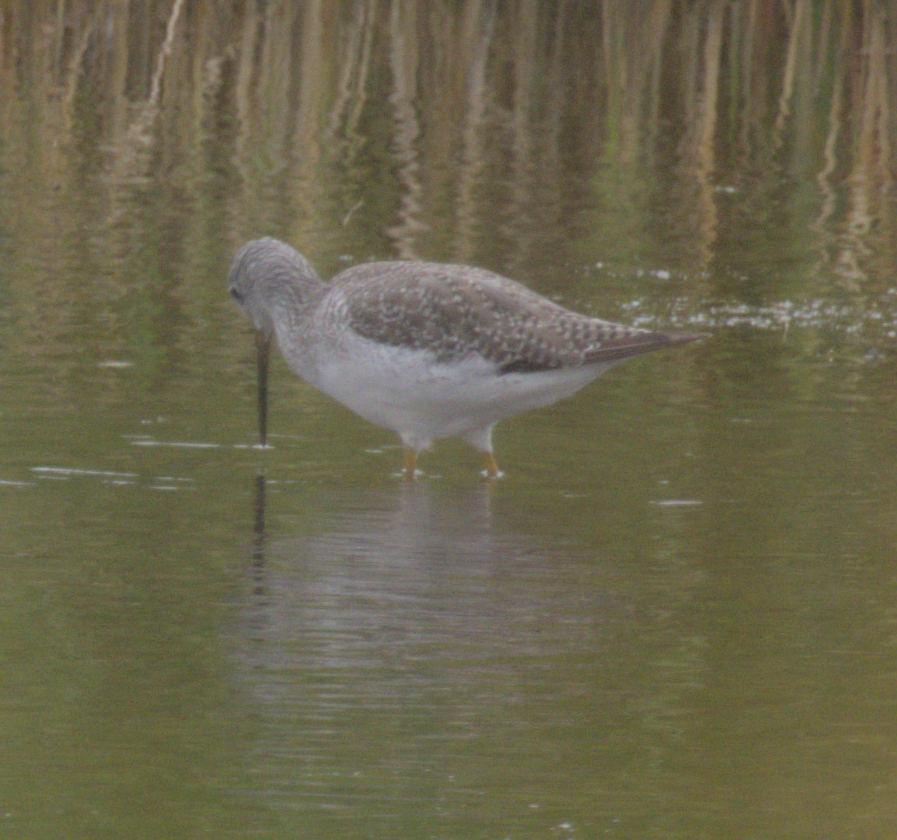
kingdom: Animalia
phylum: Chordata
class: Aves
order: Charadriiformes
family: Scolopacidae
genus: Tringa
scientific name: Tringa melanoleuca
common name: Greater yellowlegs
